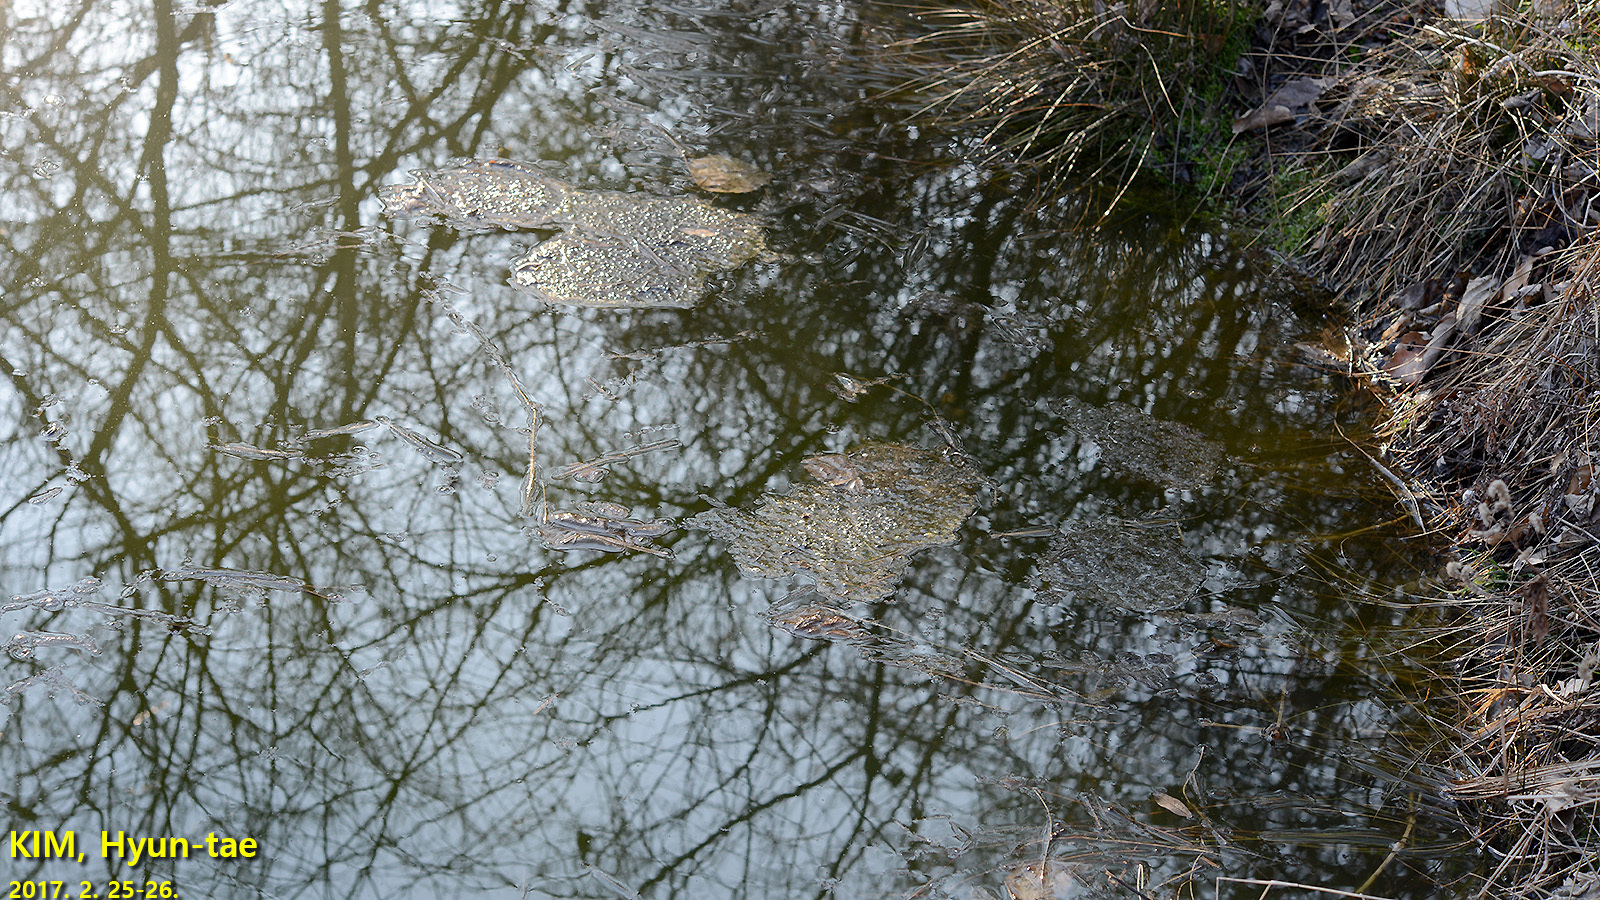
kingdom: Animalia
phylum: Chordata
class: Amphibia
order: Anura
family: Ranidae
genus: Rana
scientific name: Rana uenoi
